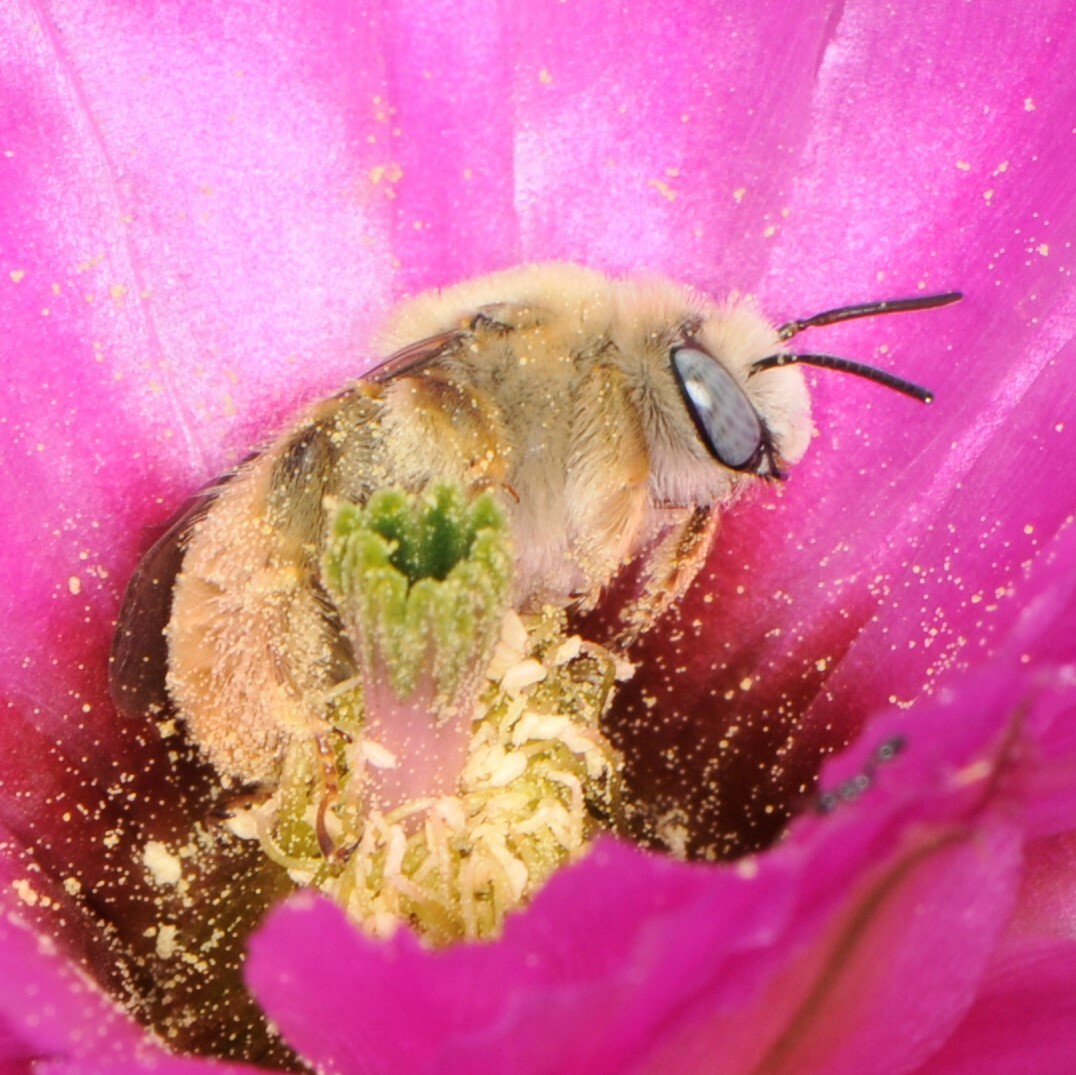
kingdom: Animalia
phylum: Arthropoda
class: Insecta
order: Hymenoptera
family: Apidae
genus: Diadasia
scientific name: Diadasia ochracea
